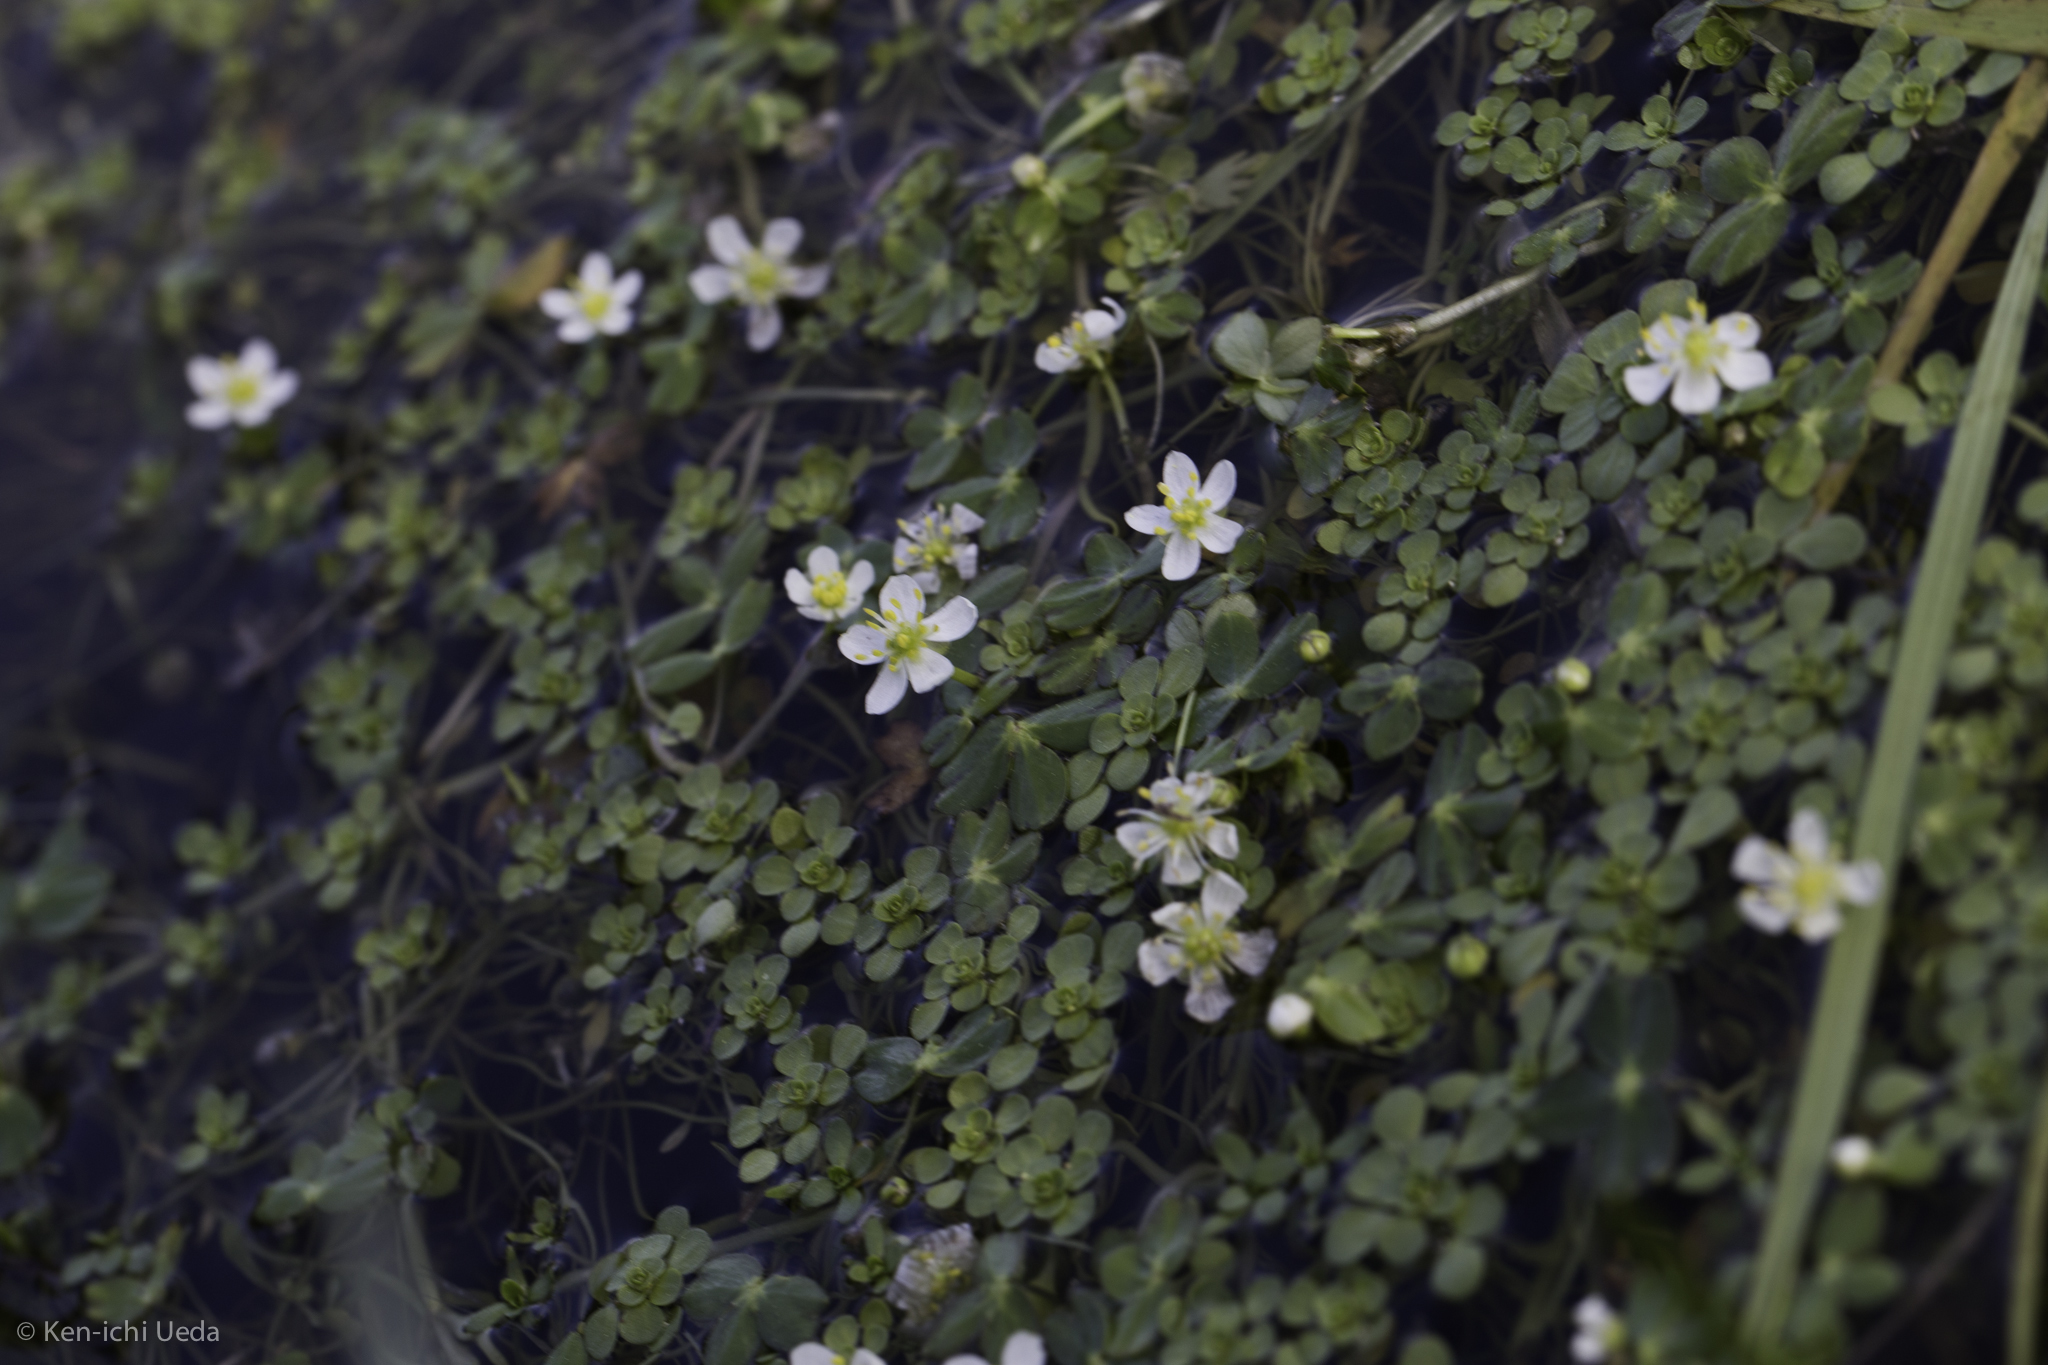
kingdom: Plantae
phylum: Tracheophyta
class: Magnoliopsida
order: Ranunculales
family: Ranunculaceae
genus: Ranunculus
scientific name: Ranunculus lobbii
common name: Lobb's buttercup
